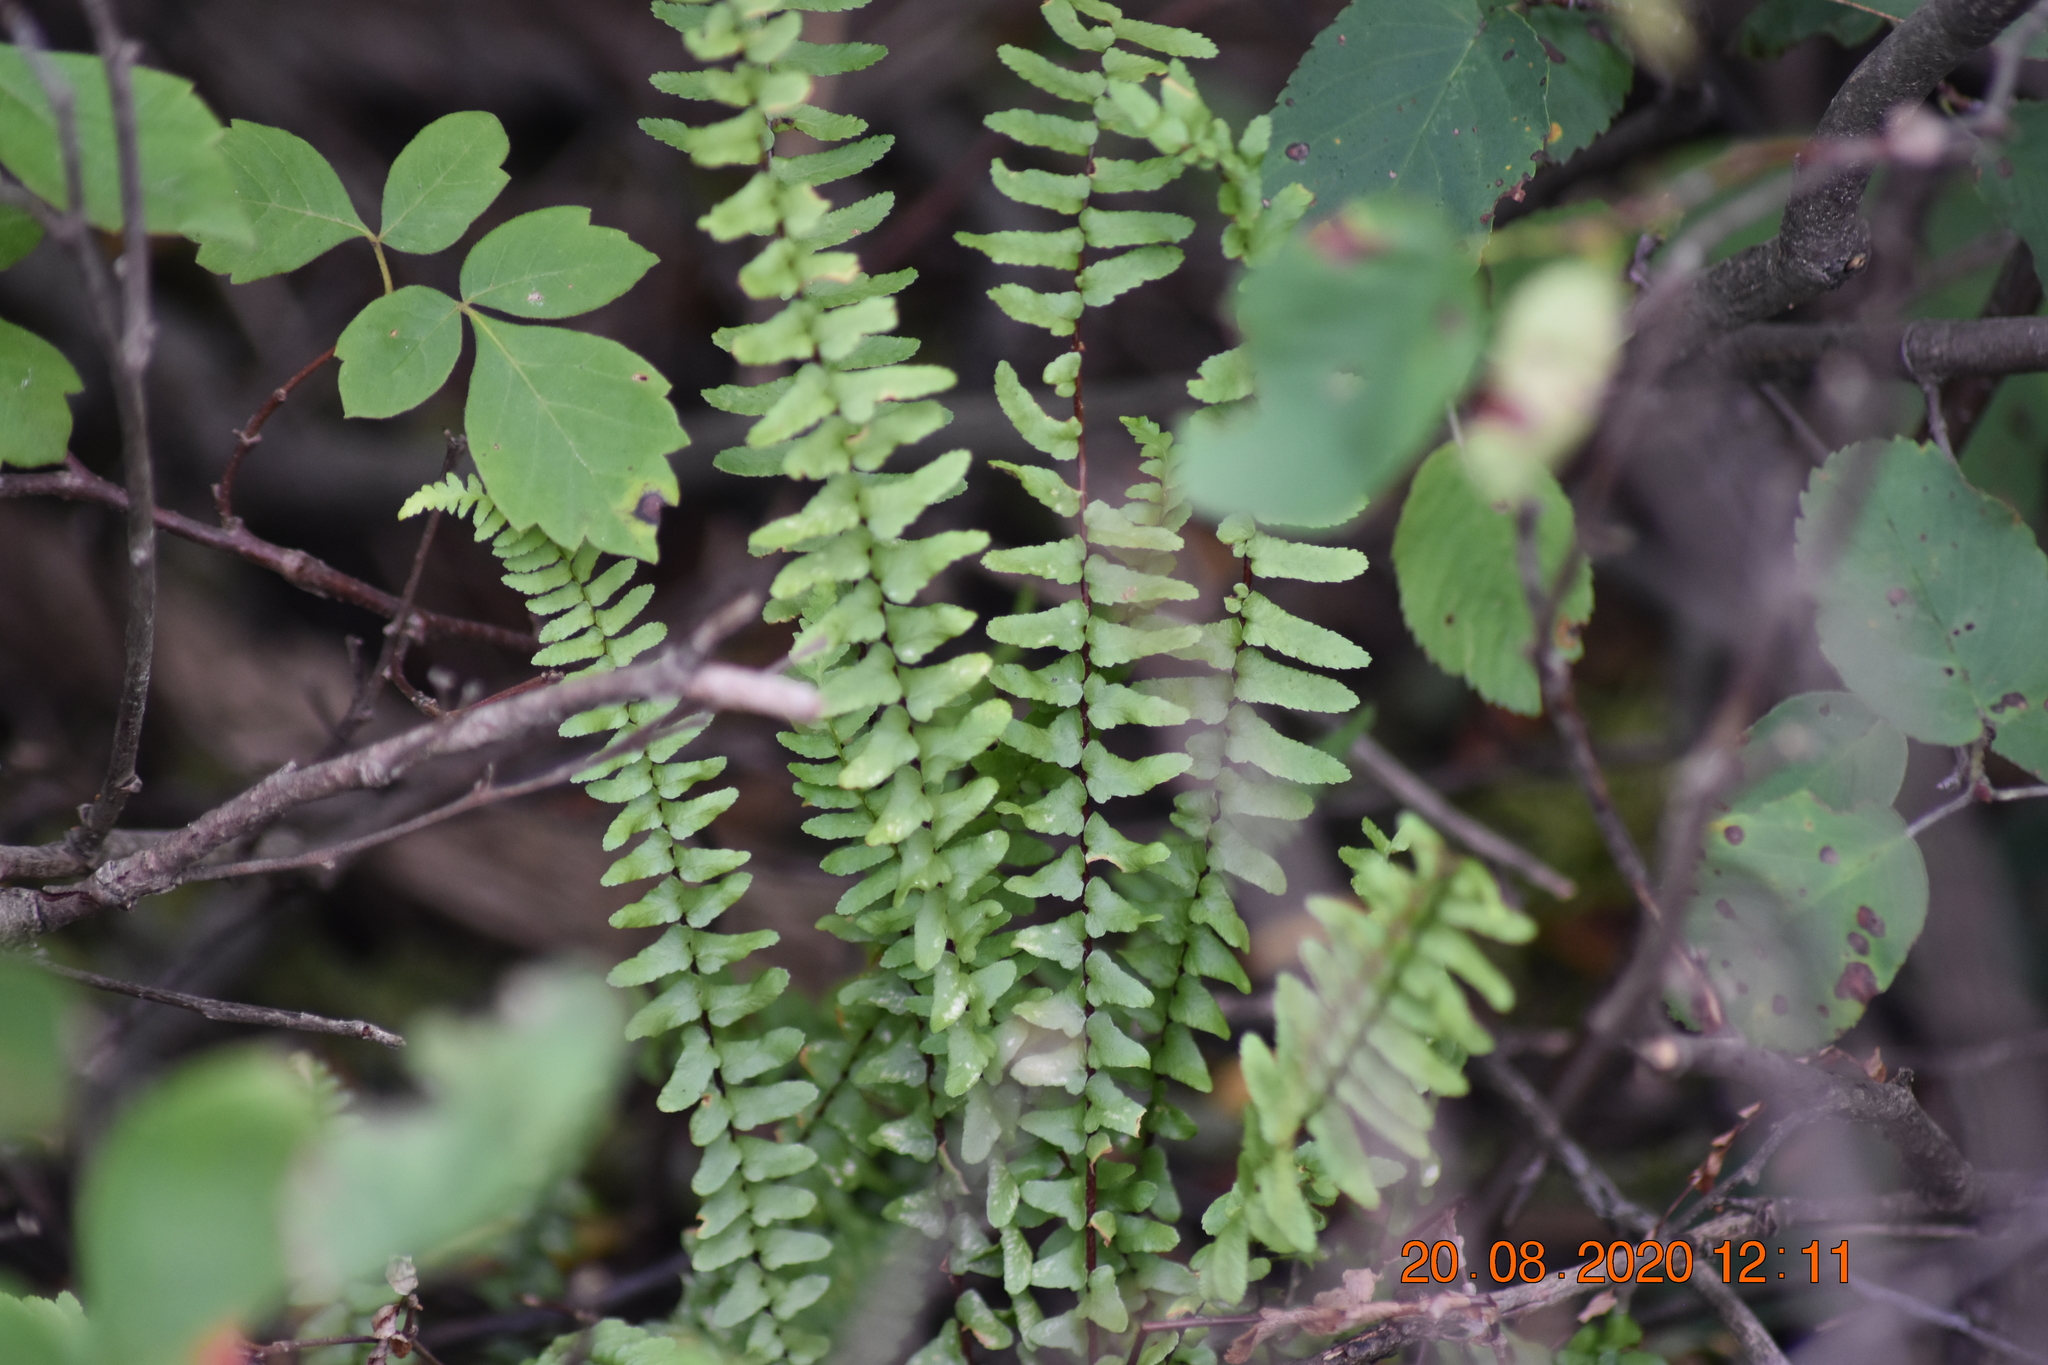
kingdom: Plantae
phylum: Tracheophyta
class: Polypodiopsida
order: Polypodiales
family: Aspleniaceae
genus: Asplenium
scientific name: Asplenium platyneuron
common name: Ebony spleenwort
